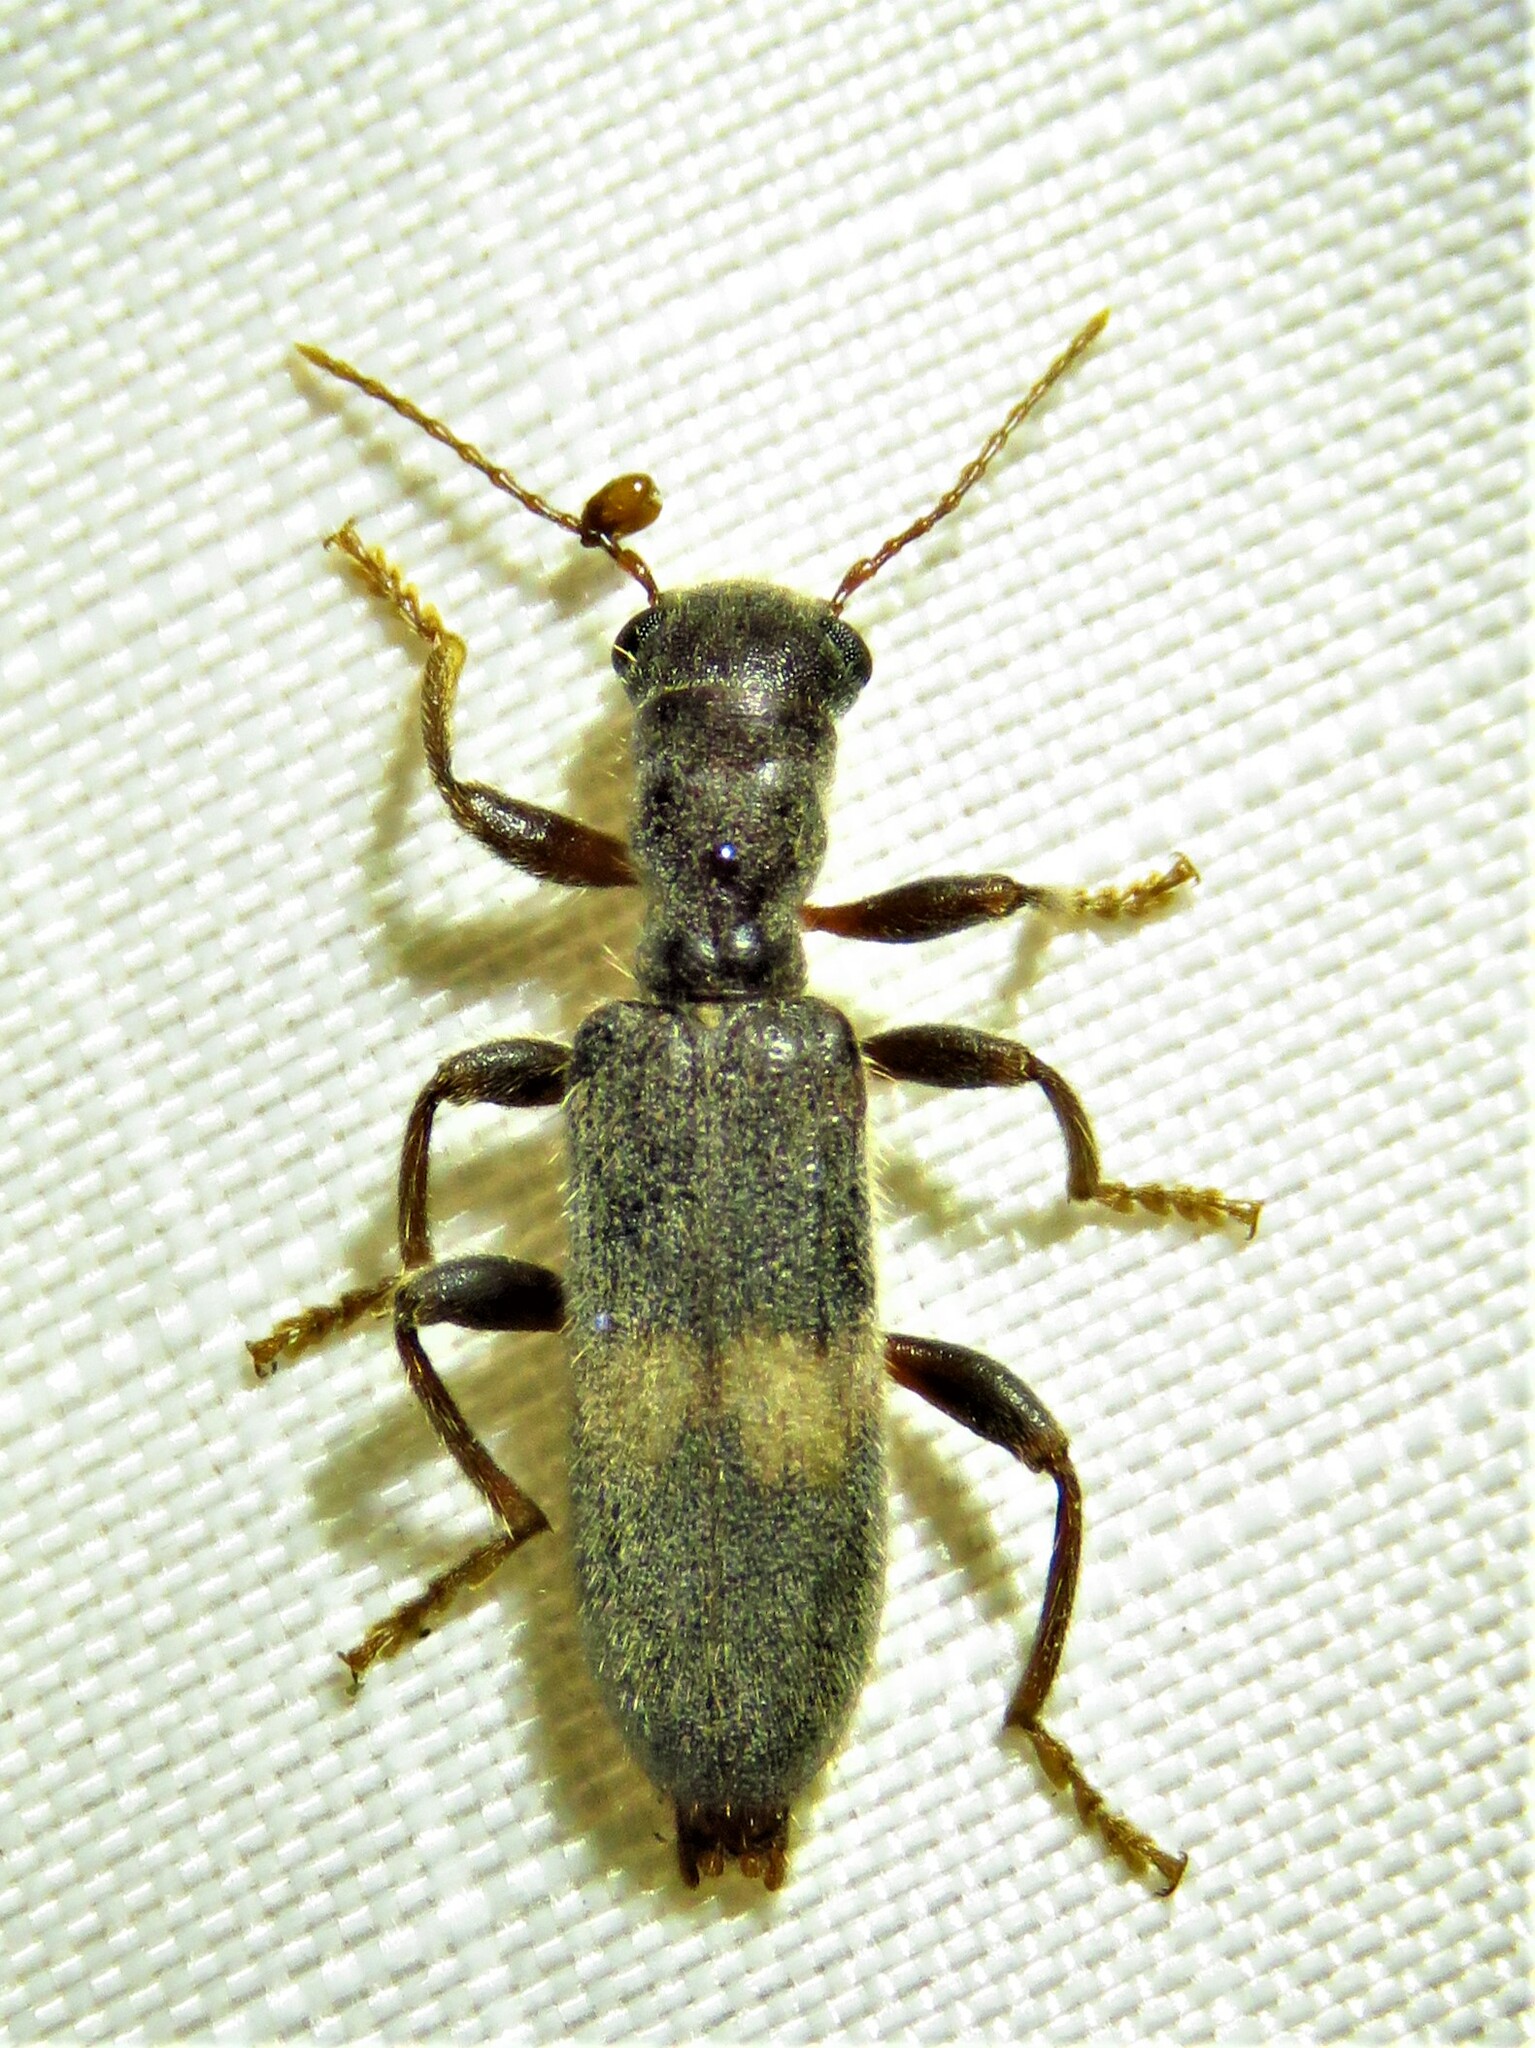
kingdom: Animalia
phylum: Arthropoda
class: Insecta
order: Coleoptera
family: Cleridae
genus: Cymatodera
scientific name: Cymatodera dietrichi
